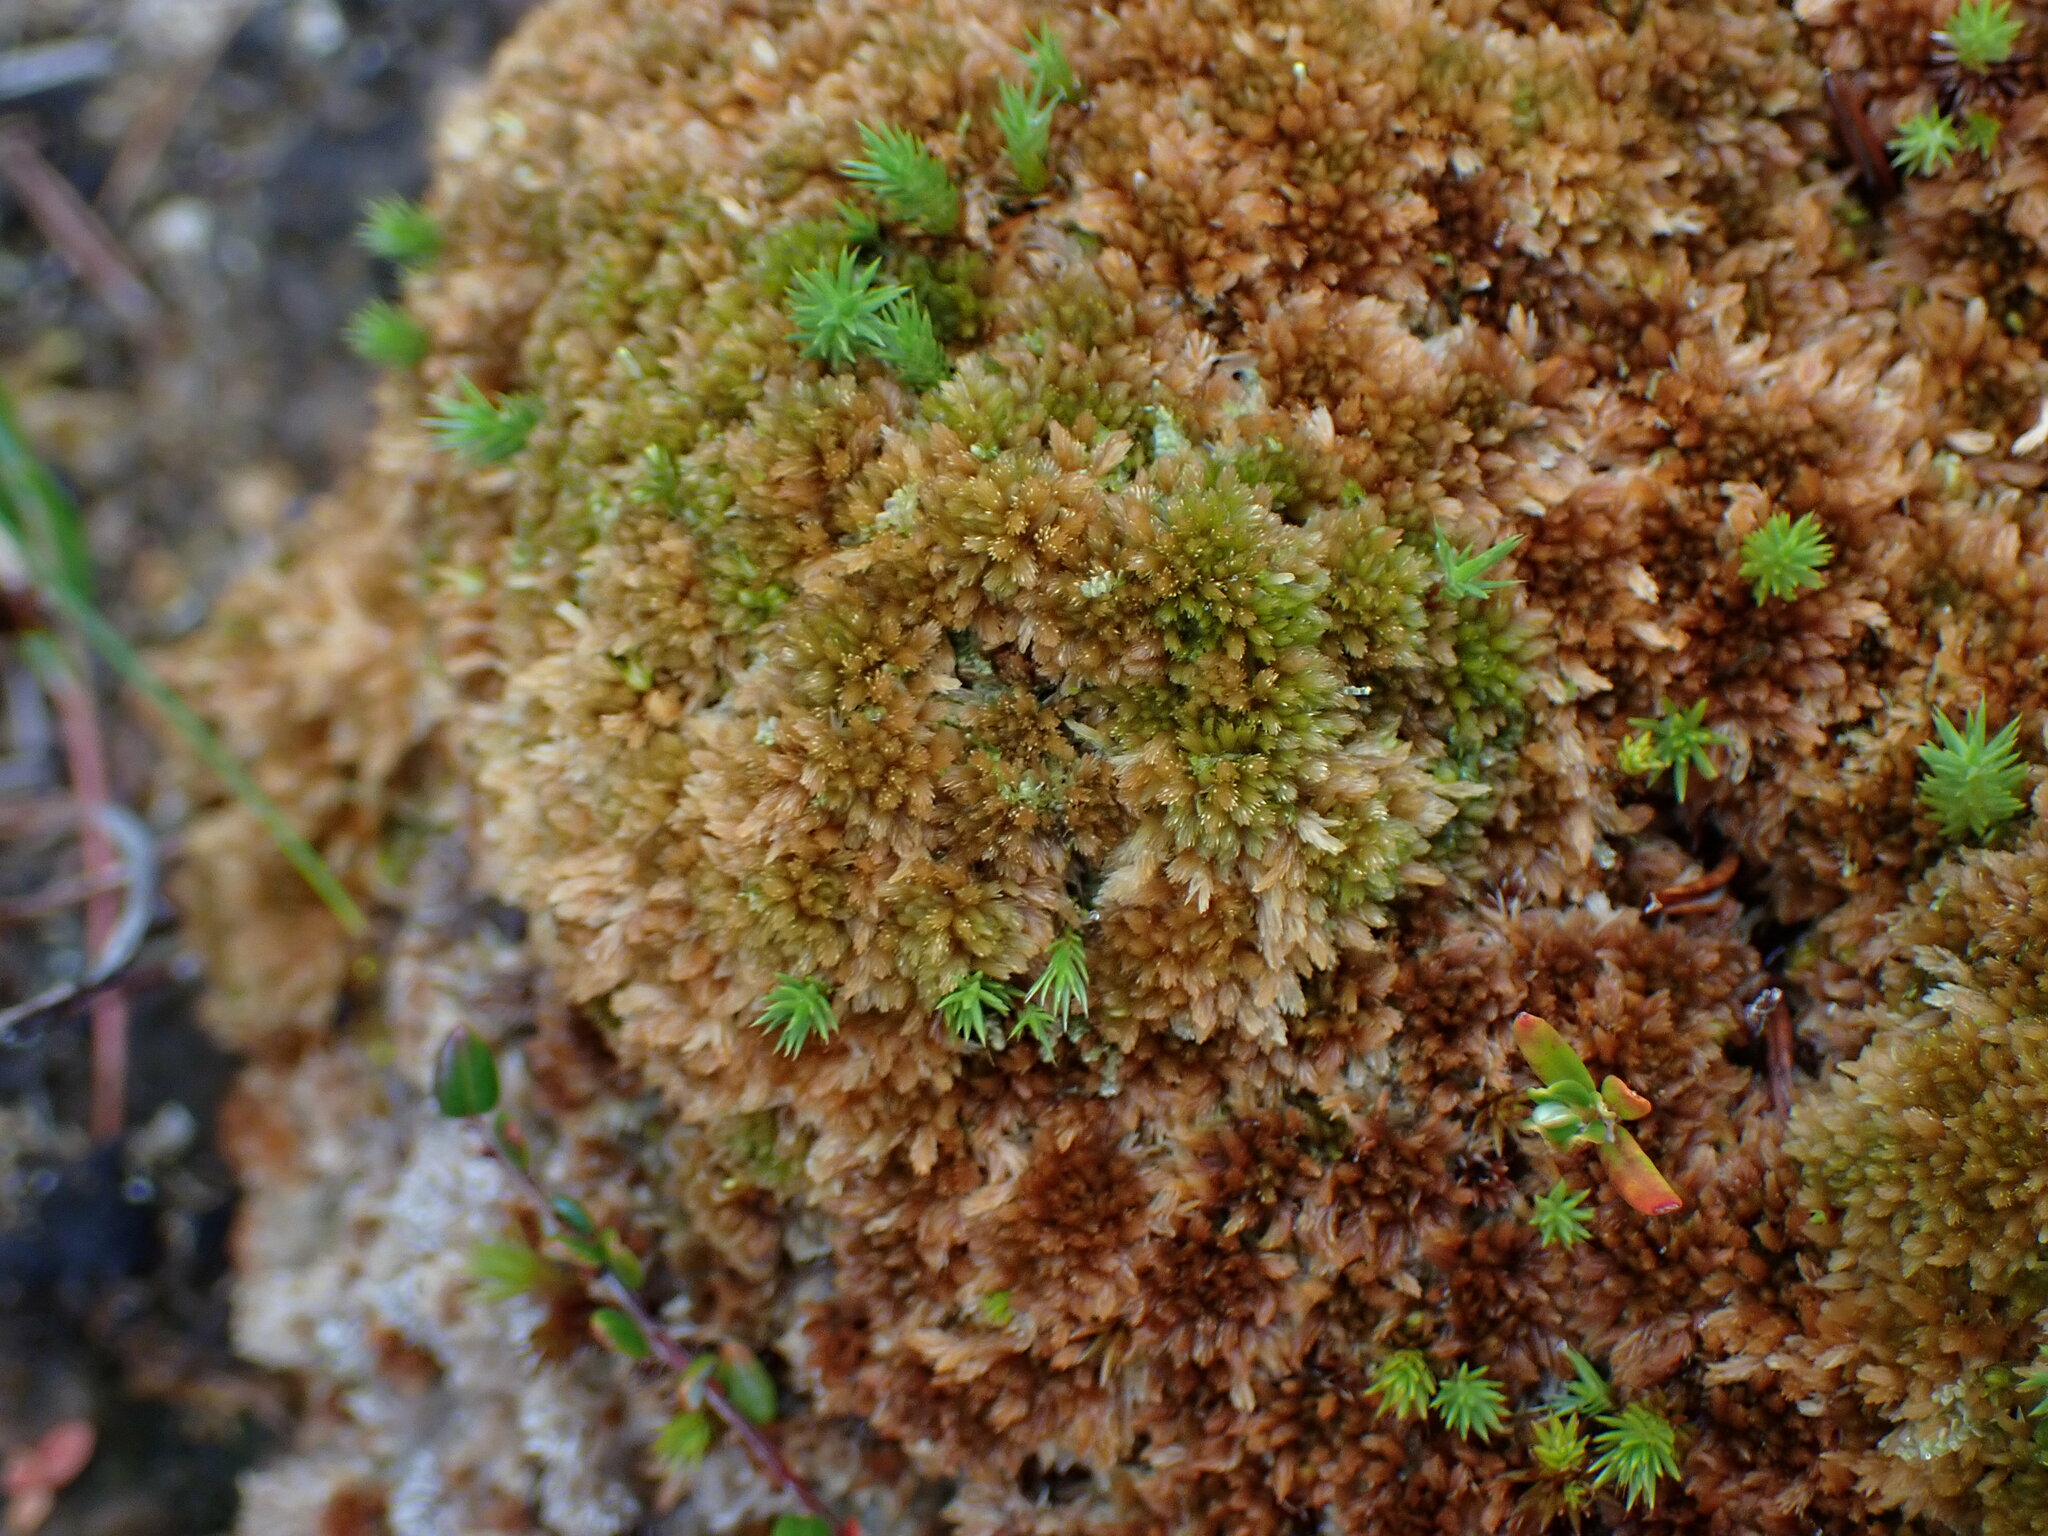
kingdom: Plantae
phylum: Bryophyta
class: Sphagnopsida
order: Sphagnales
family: Sphagnaceae
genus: Sphagnum
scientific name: Sphagnum fuscum
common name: Brown peat moss
